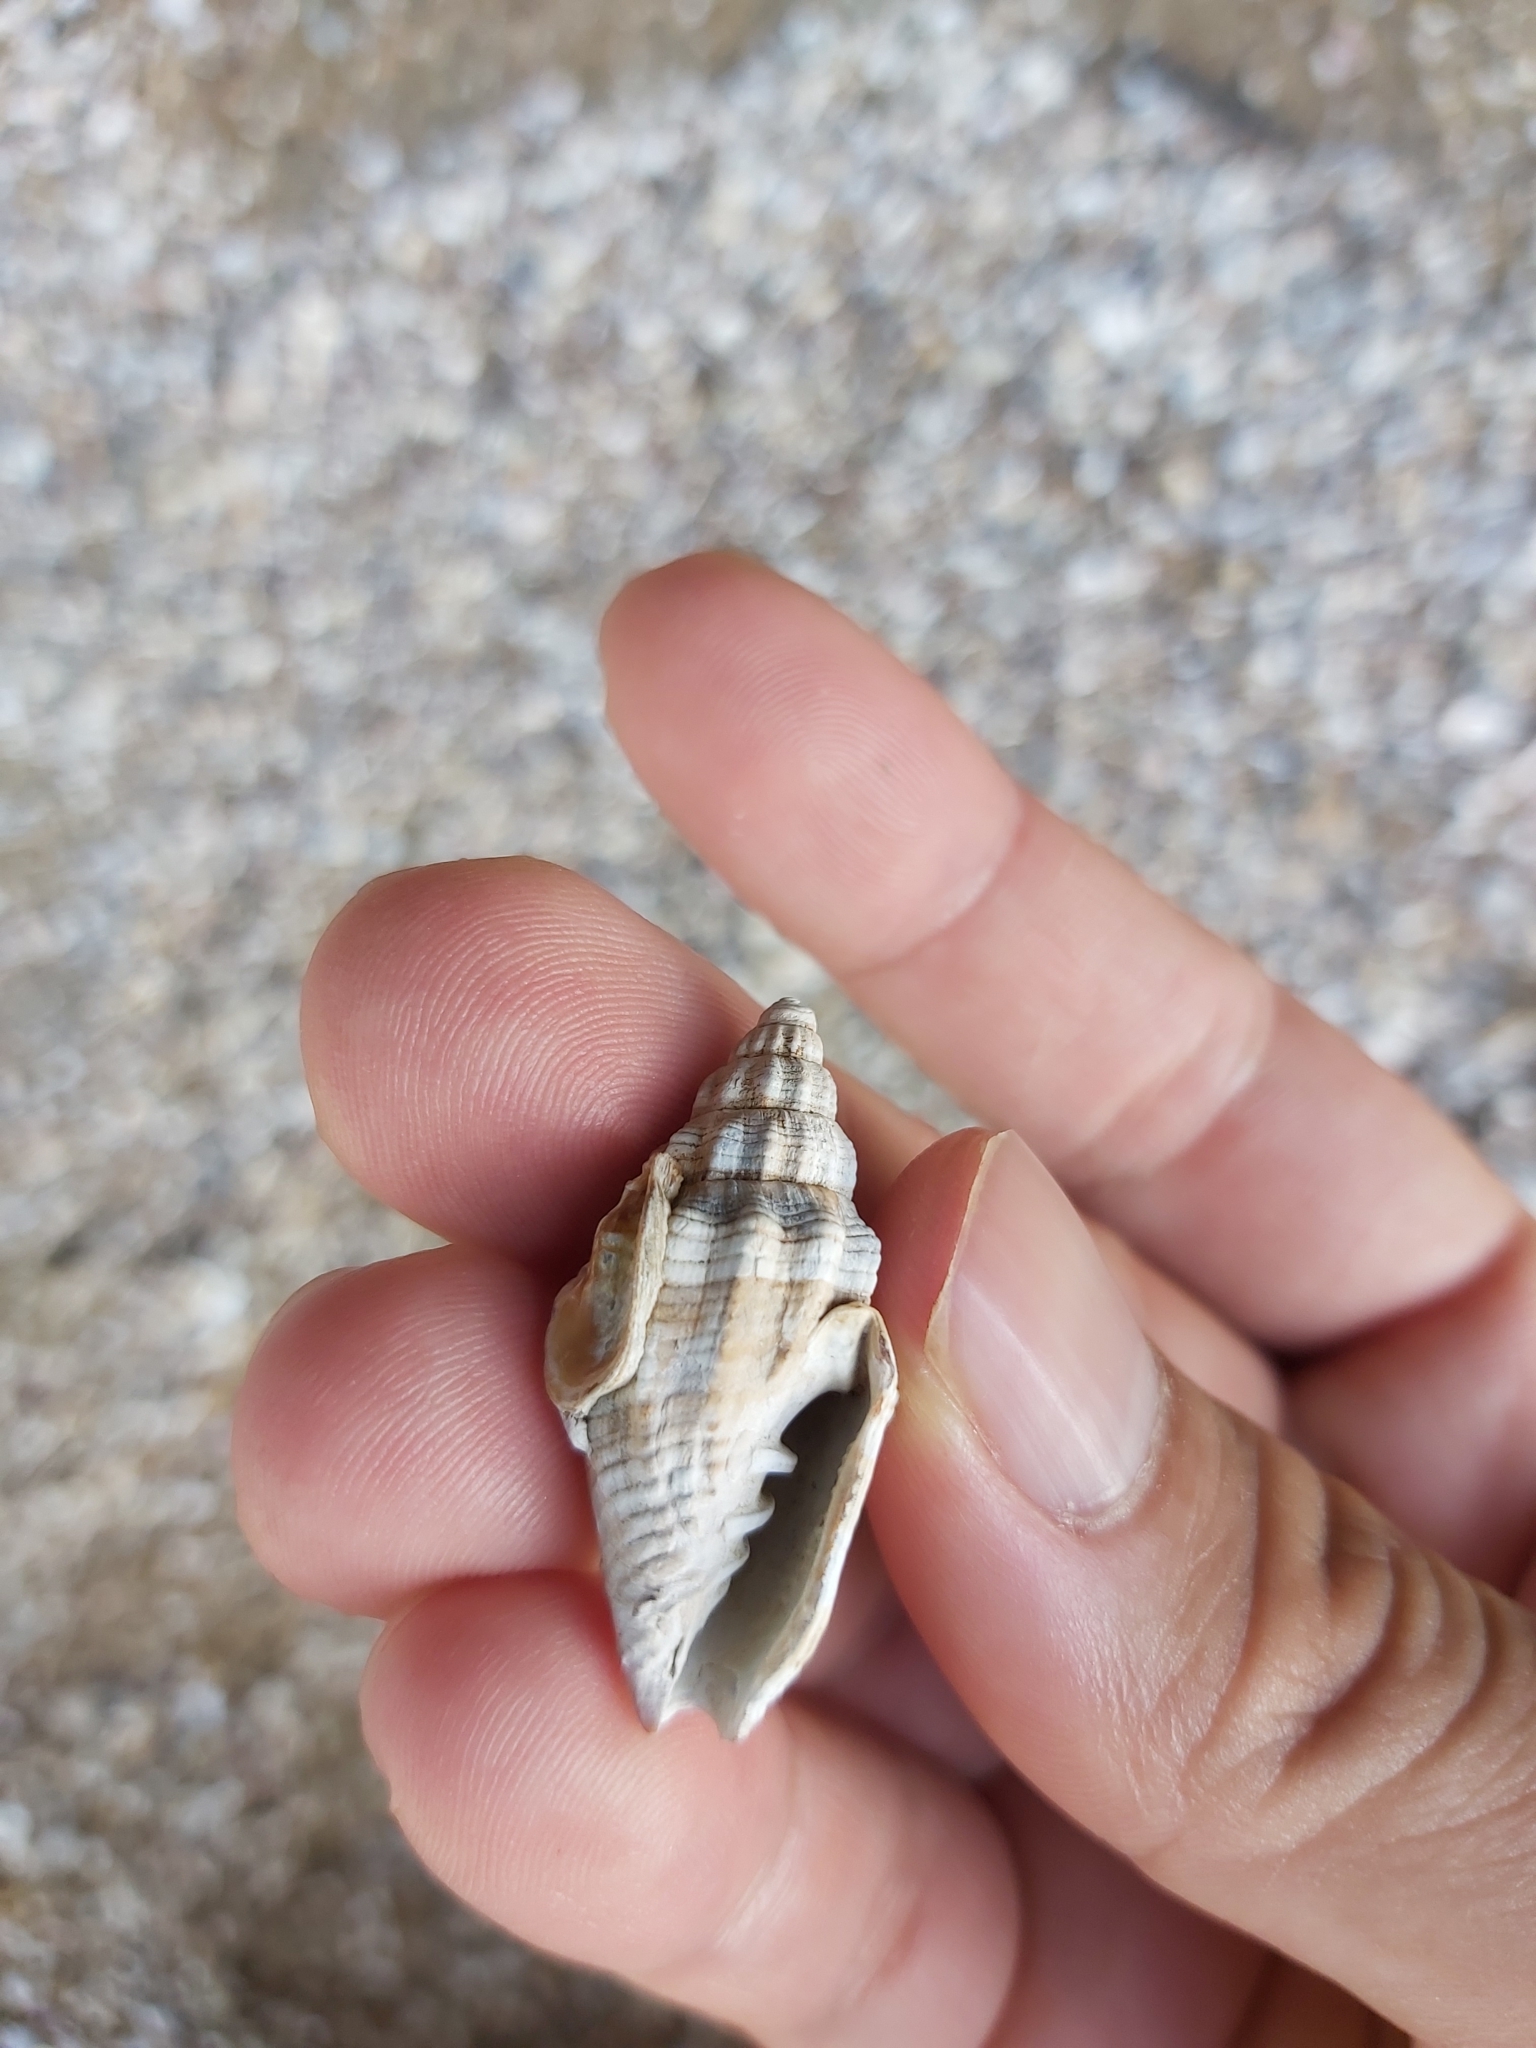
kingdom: Animalia
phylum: Mollusca
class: Gastropoda
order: Neogastropoda
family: Costellariidae
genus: Vexillum
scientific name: Vexillum rugosum
